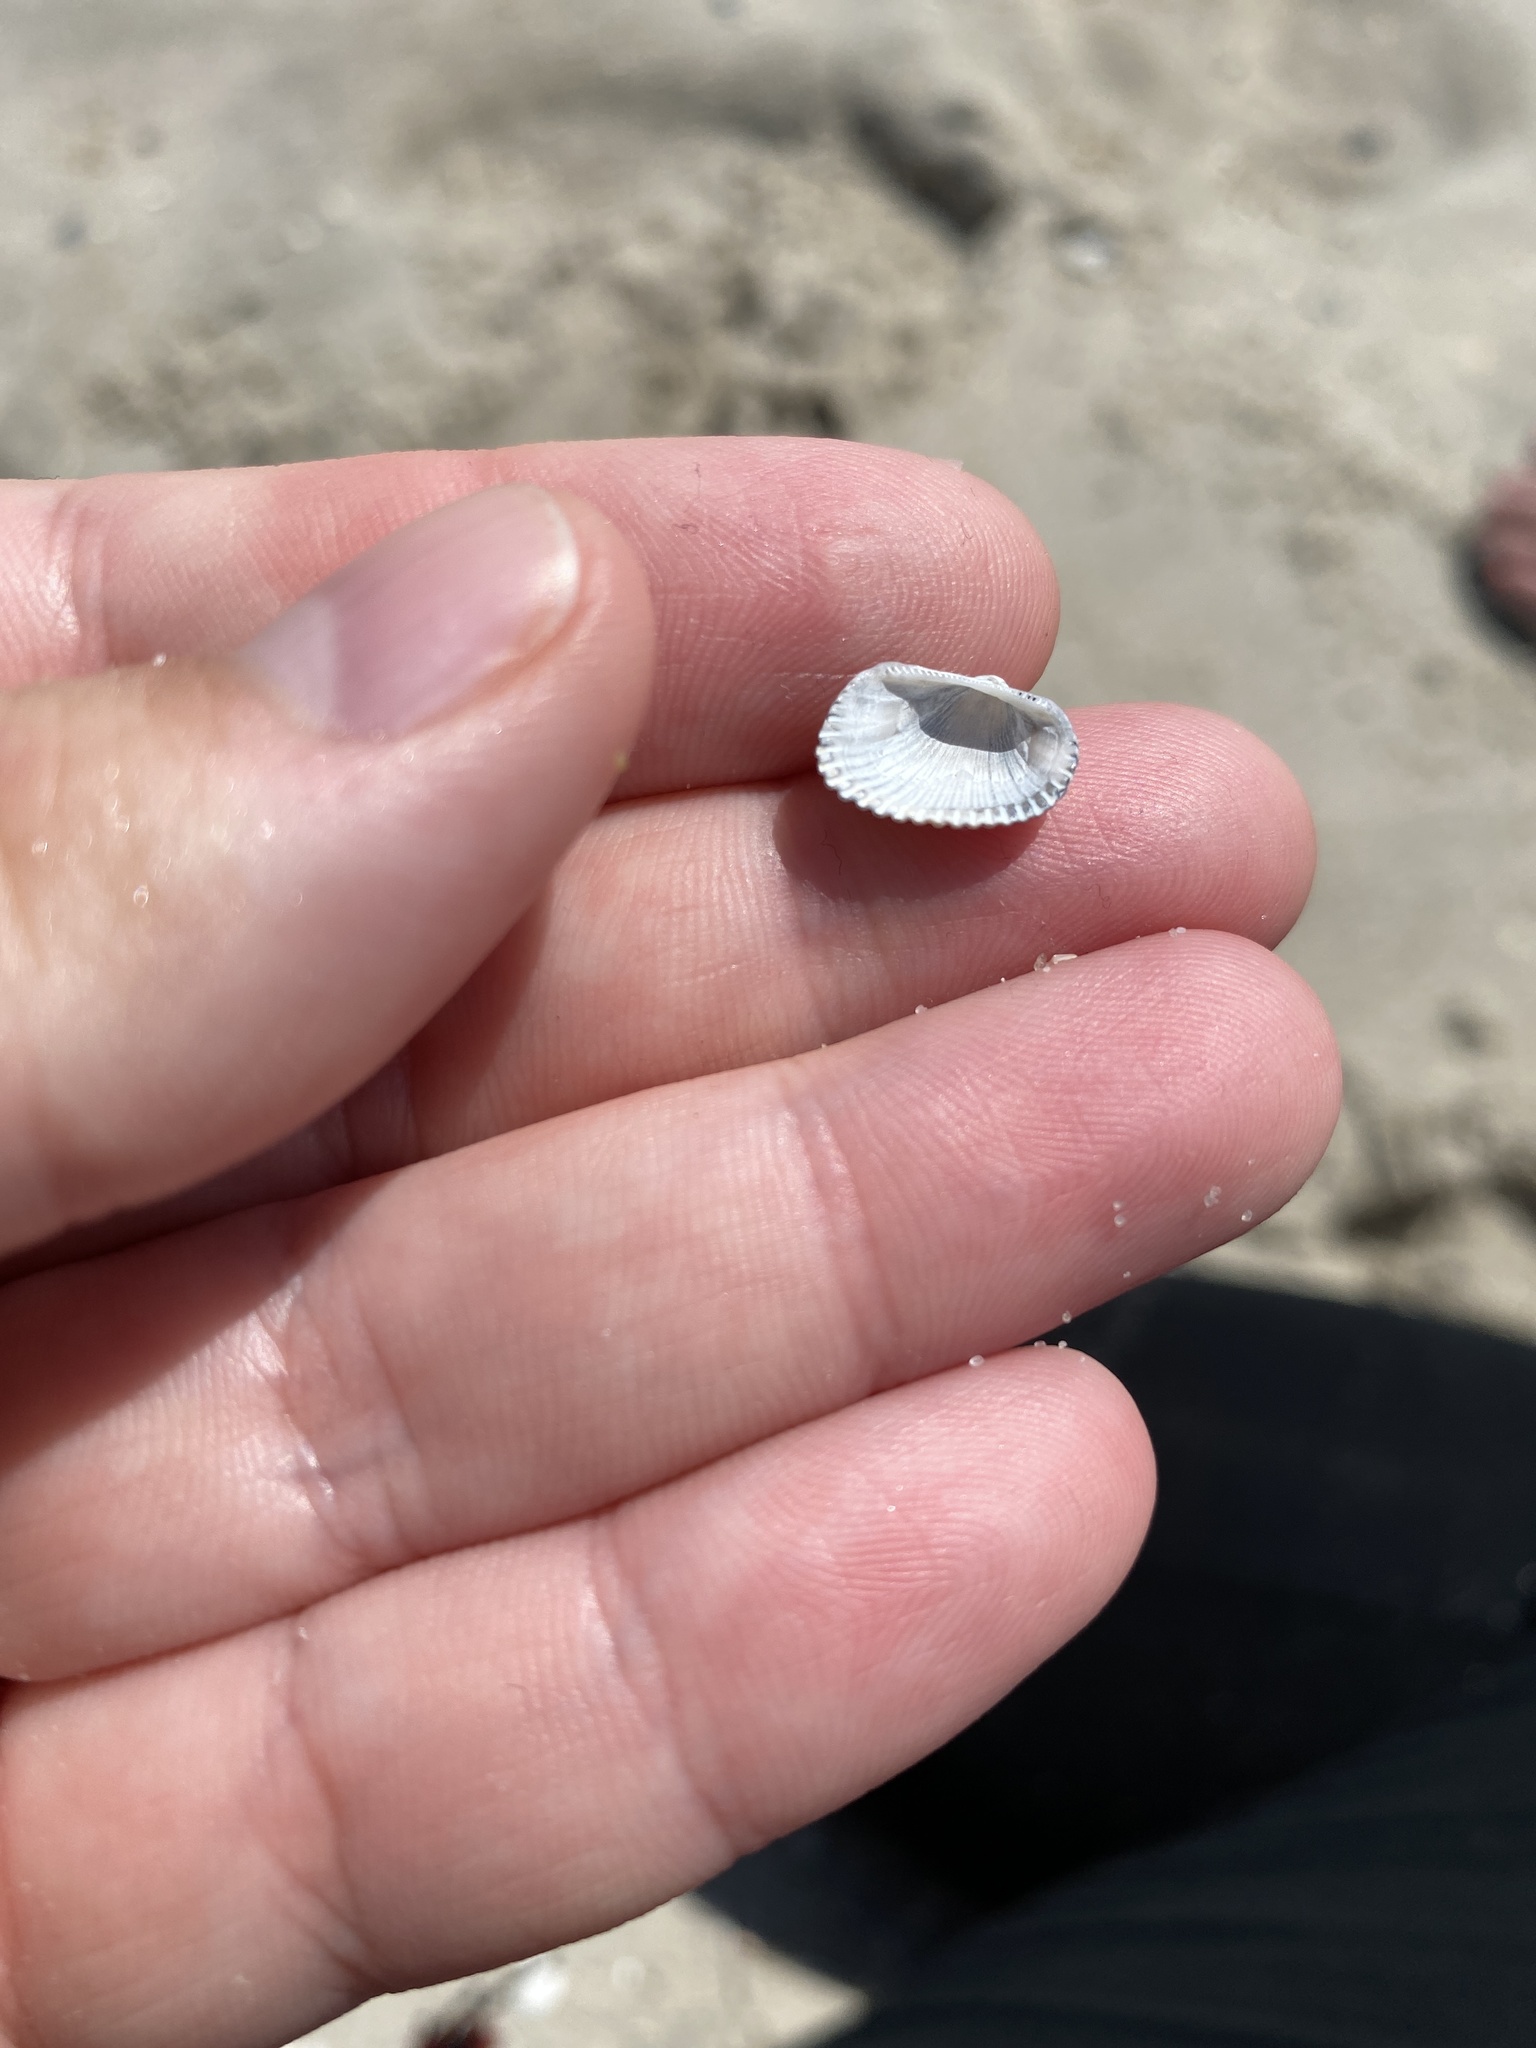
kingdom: Animalia
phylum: Mollusca
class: Bivalvia
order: Arcida
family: Arcidae
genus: Anadara
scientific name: Anadara transversa
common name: Transverse ark
